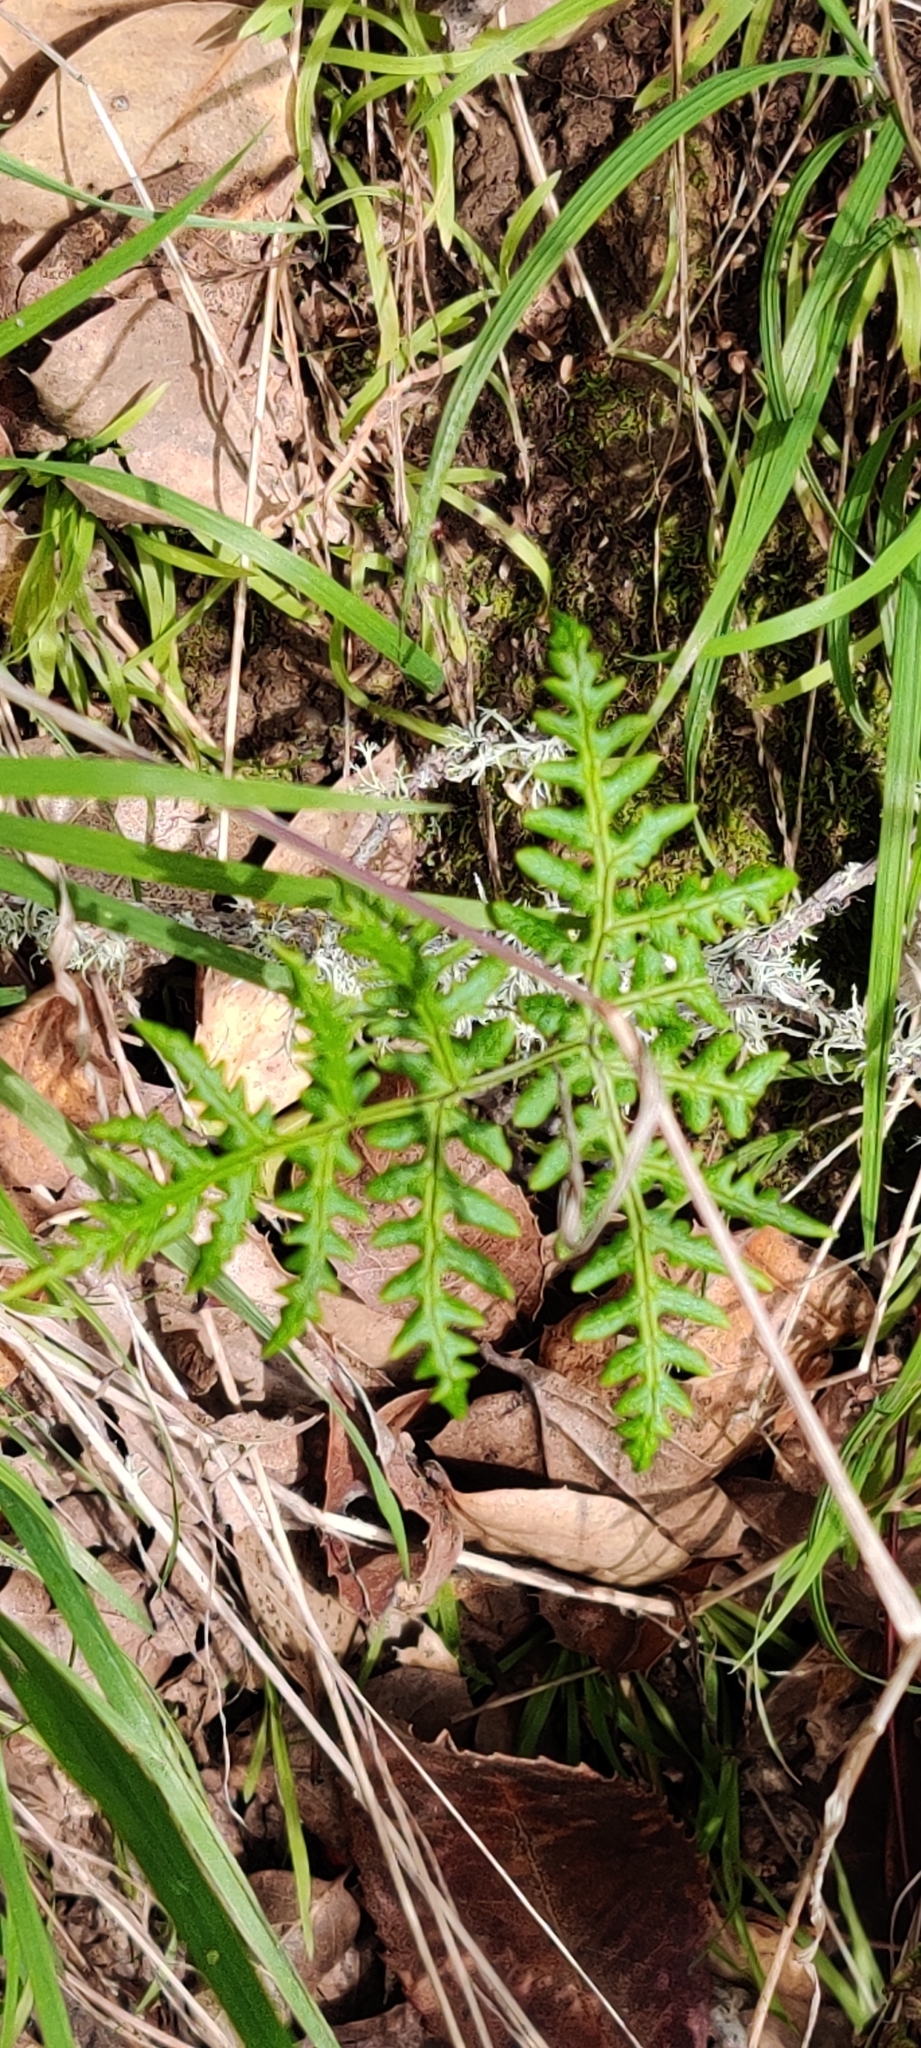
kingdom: Plantae
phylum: Tracheophyta
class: Polypodiopsida
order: Polypodiales
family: Pteridaceae
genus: Pentagramma
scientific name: Pentagramma triangularis
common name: Gold fern
